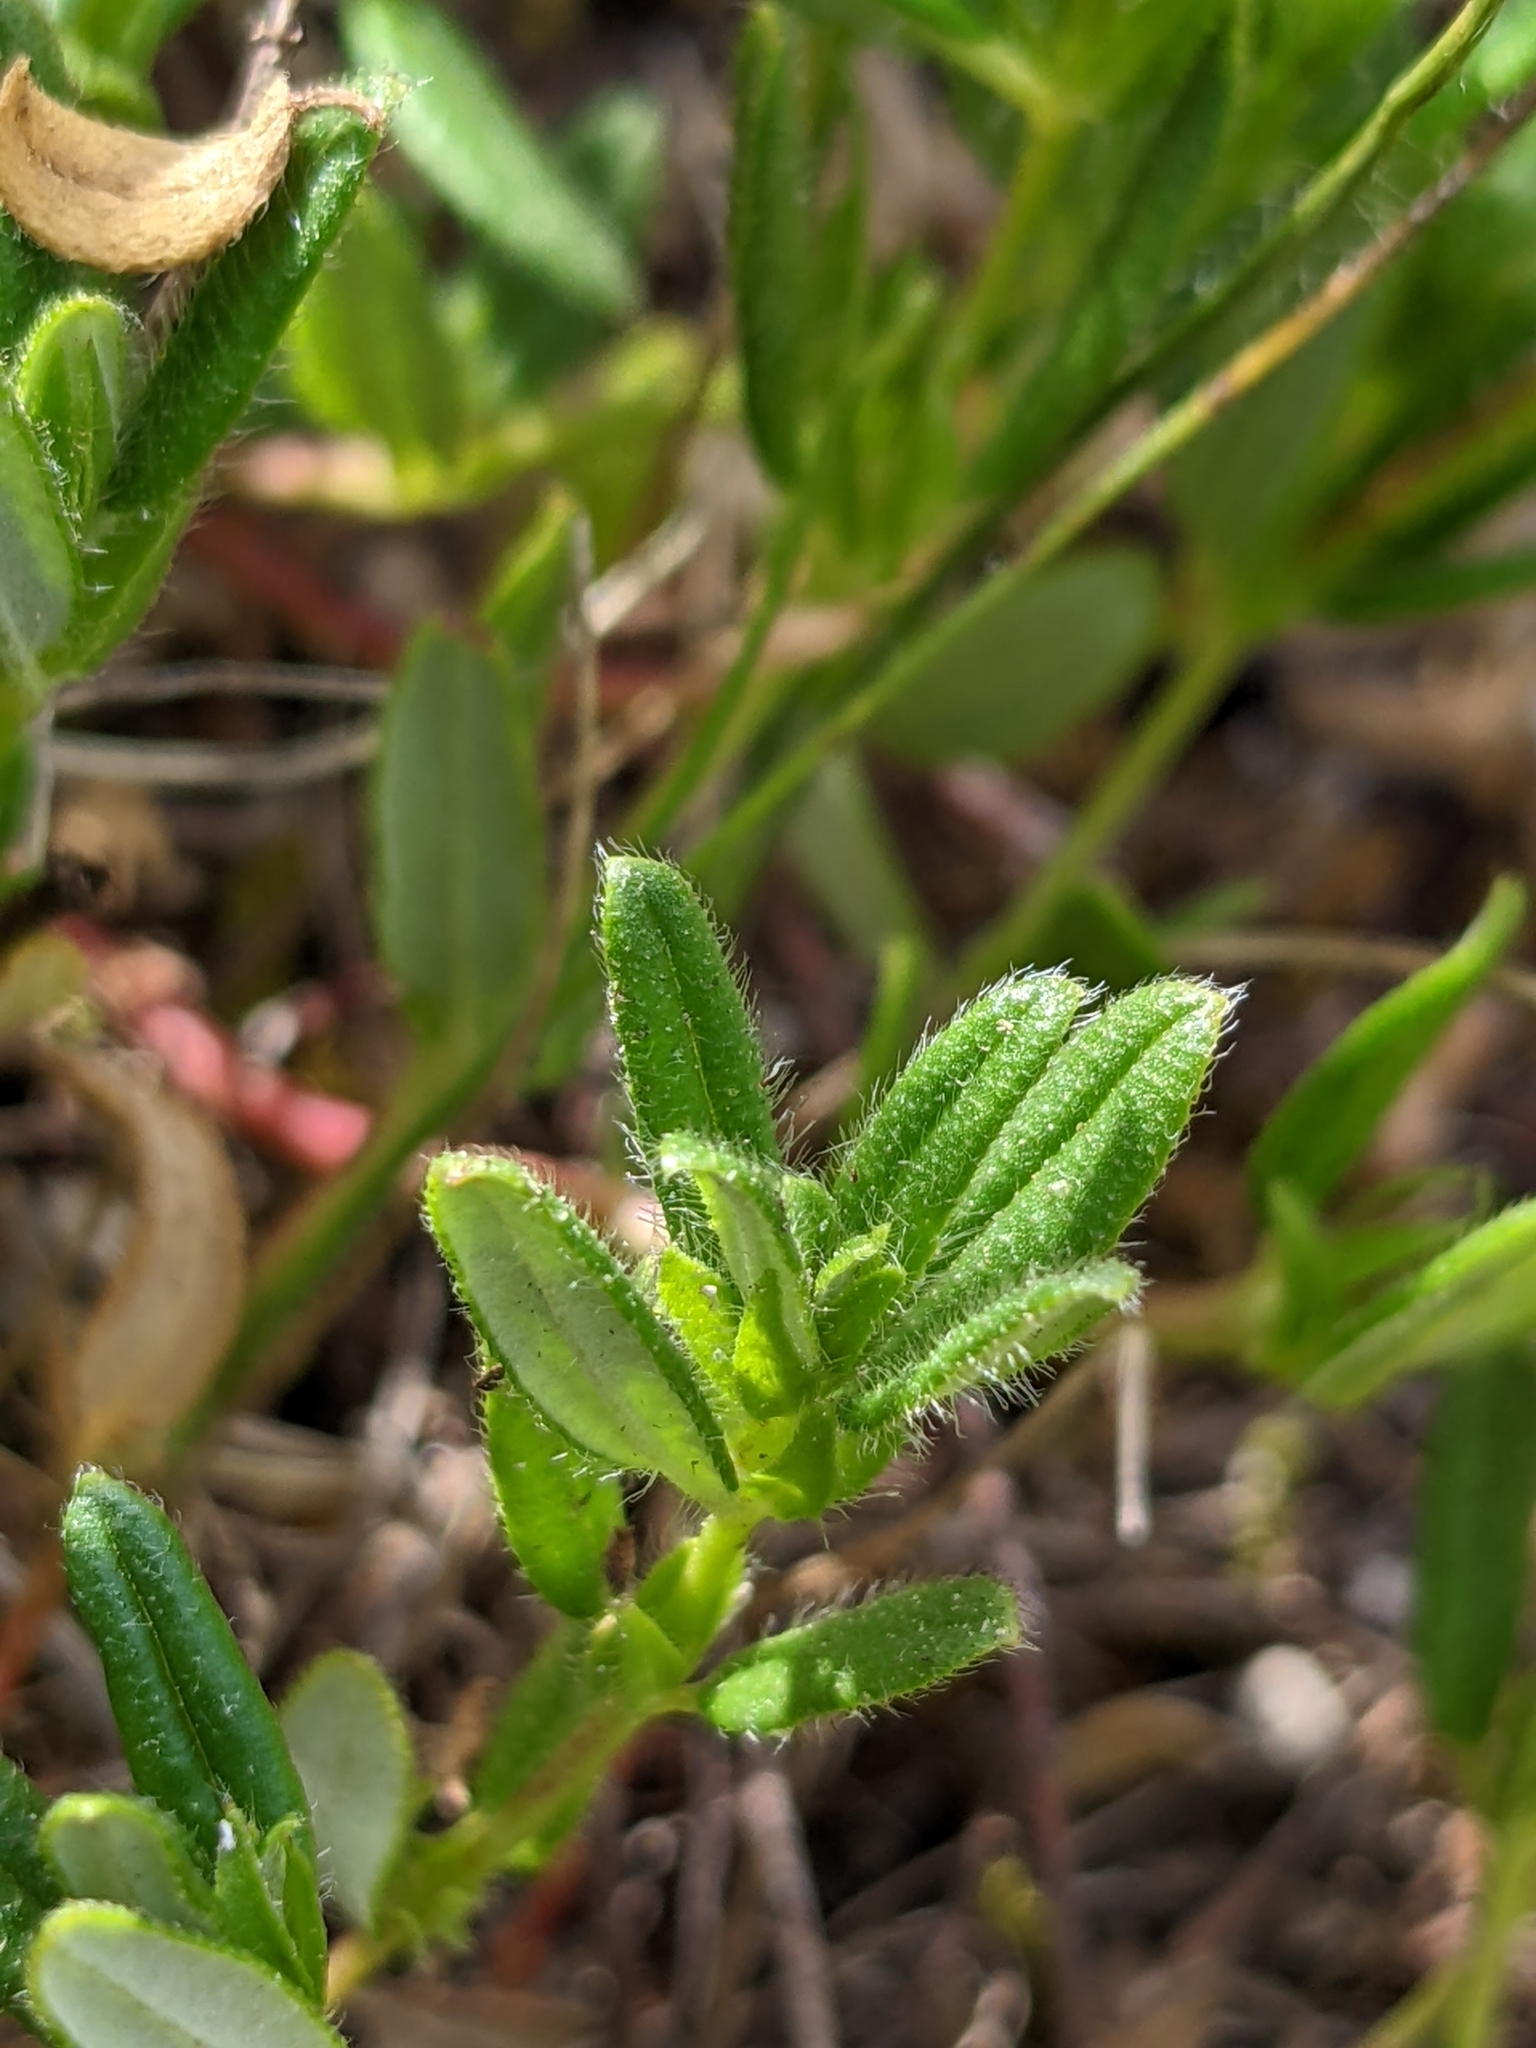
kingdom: Plantae
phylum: Tracheophyta
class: Magnoliopsida
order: Malvales
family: Cistaceae
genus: Helianthemum
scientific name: Helianthemum nummularium
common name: Common rock-rose
